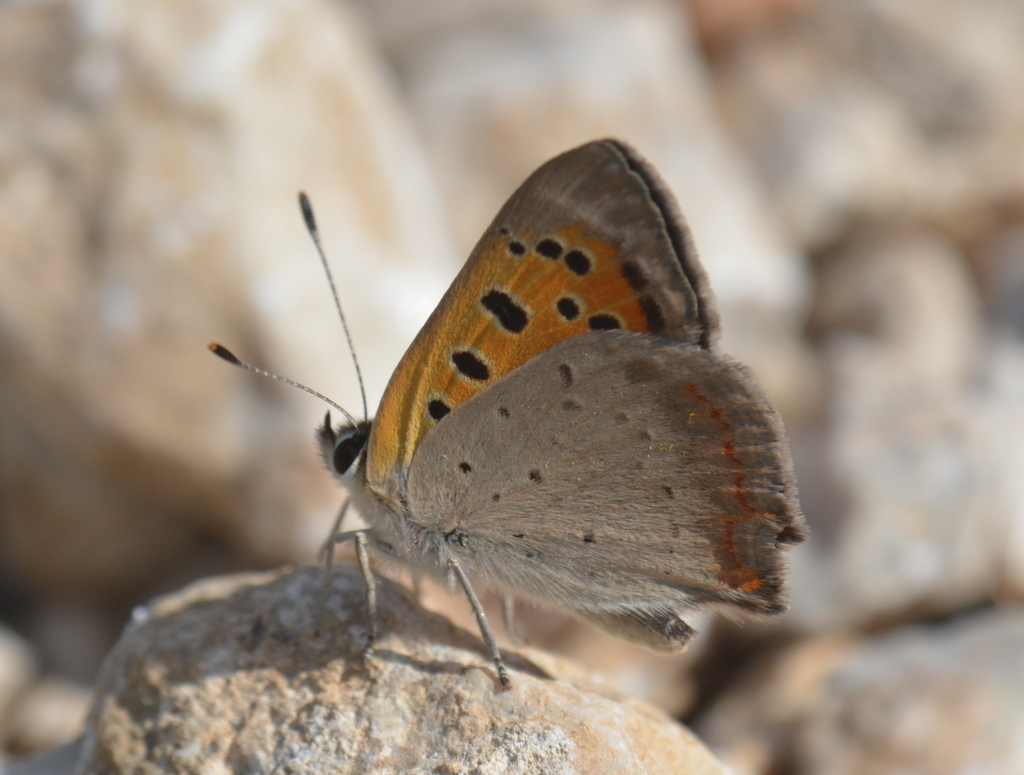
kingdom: Animalia
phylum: Arthropoda
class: Insecta
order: Lepidoptera
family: Lycaenidae
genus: Lycaena
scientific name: Lycaena phlaeas
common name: Small copper
